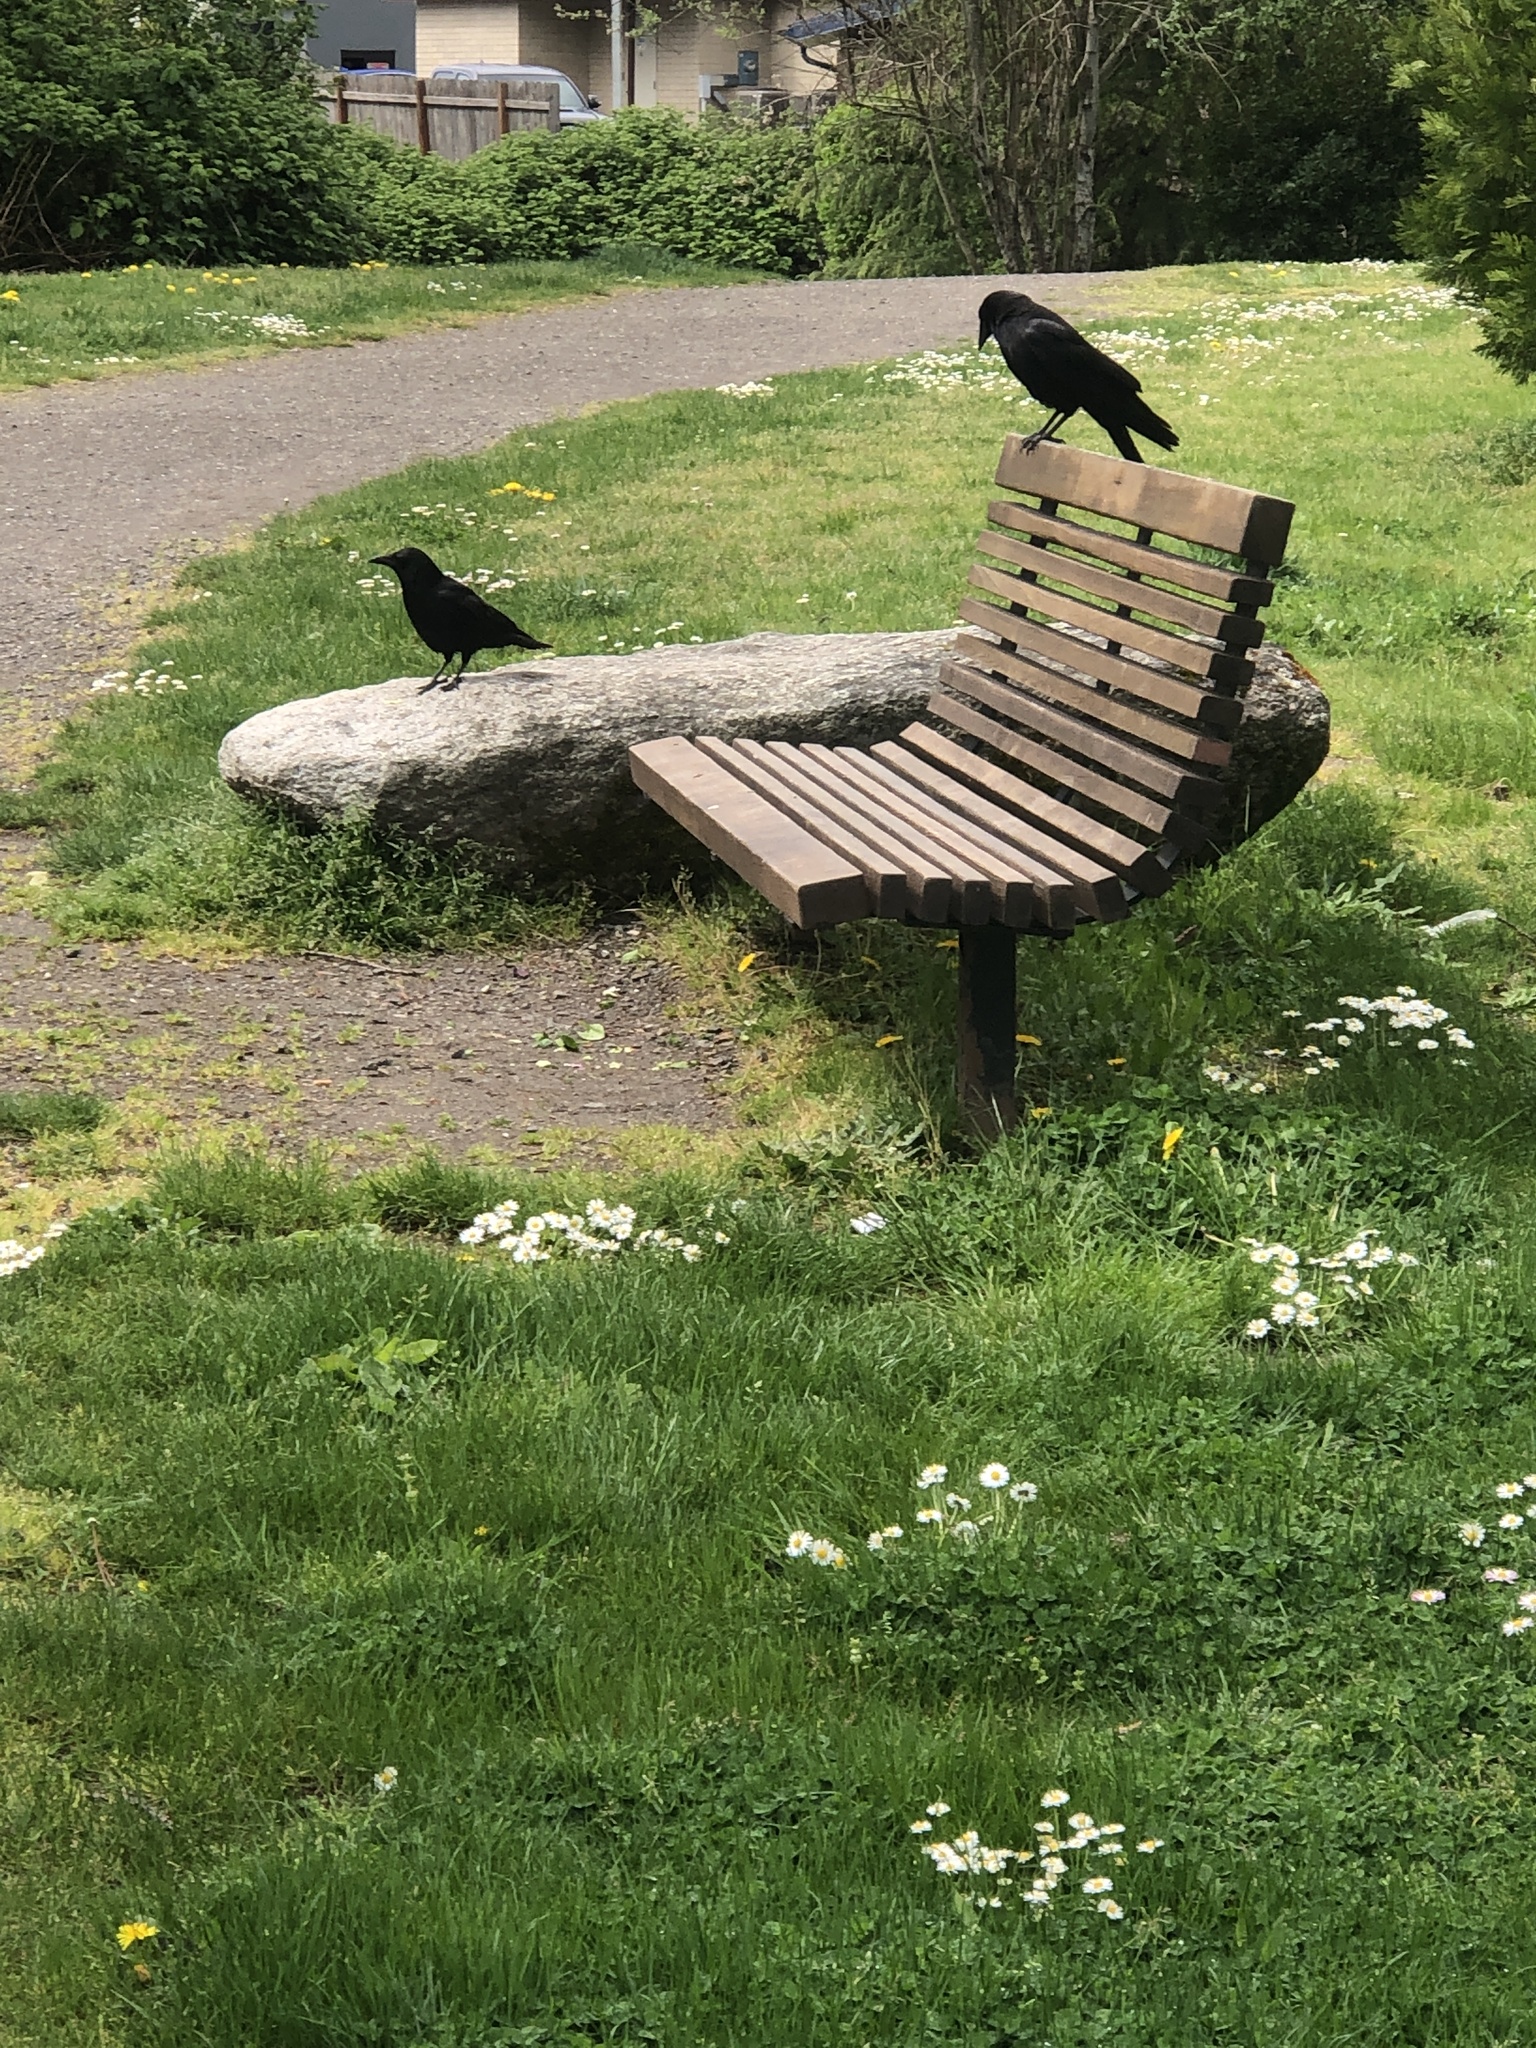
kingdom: Animalia
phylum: Chordata
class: Aves
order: Passeriformes
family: Corvidae
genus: Corvus
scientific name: Corvus brachyrhynchos
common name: American crow
